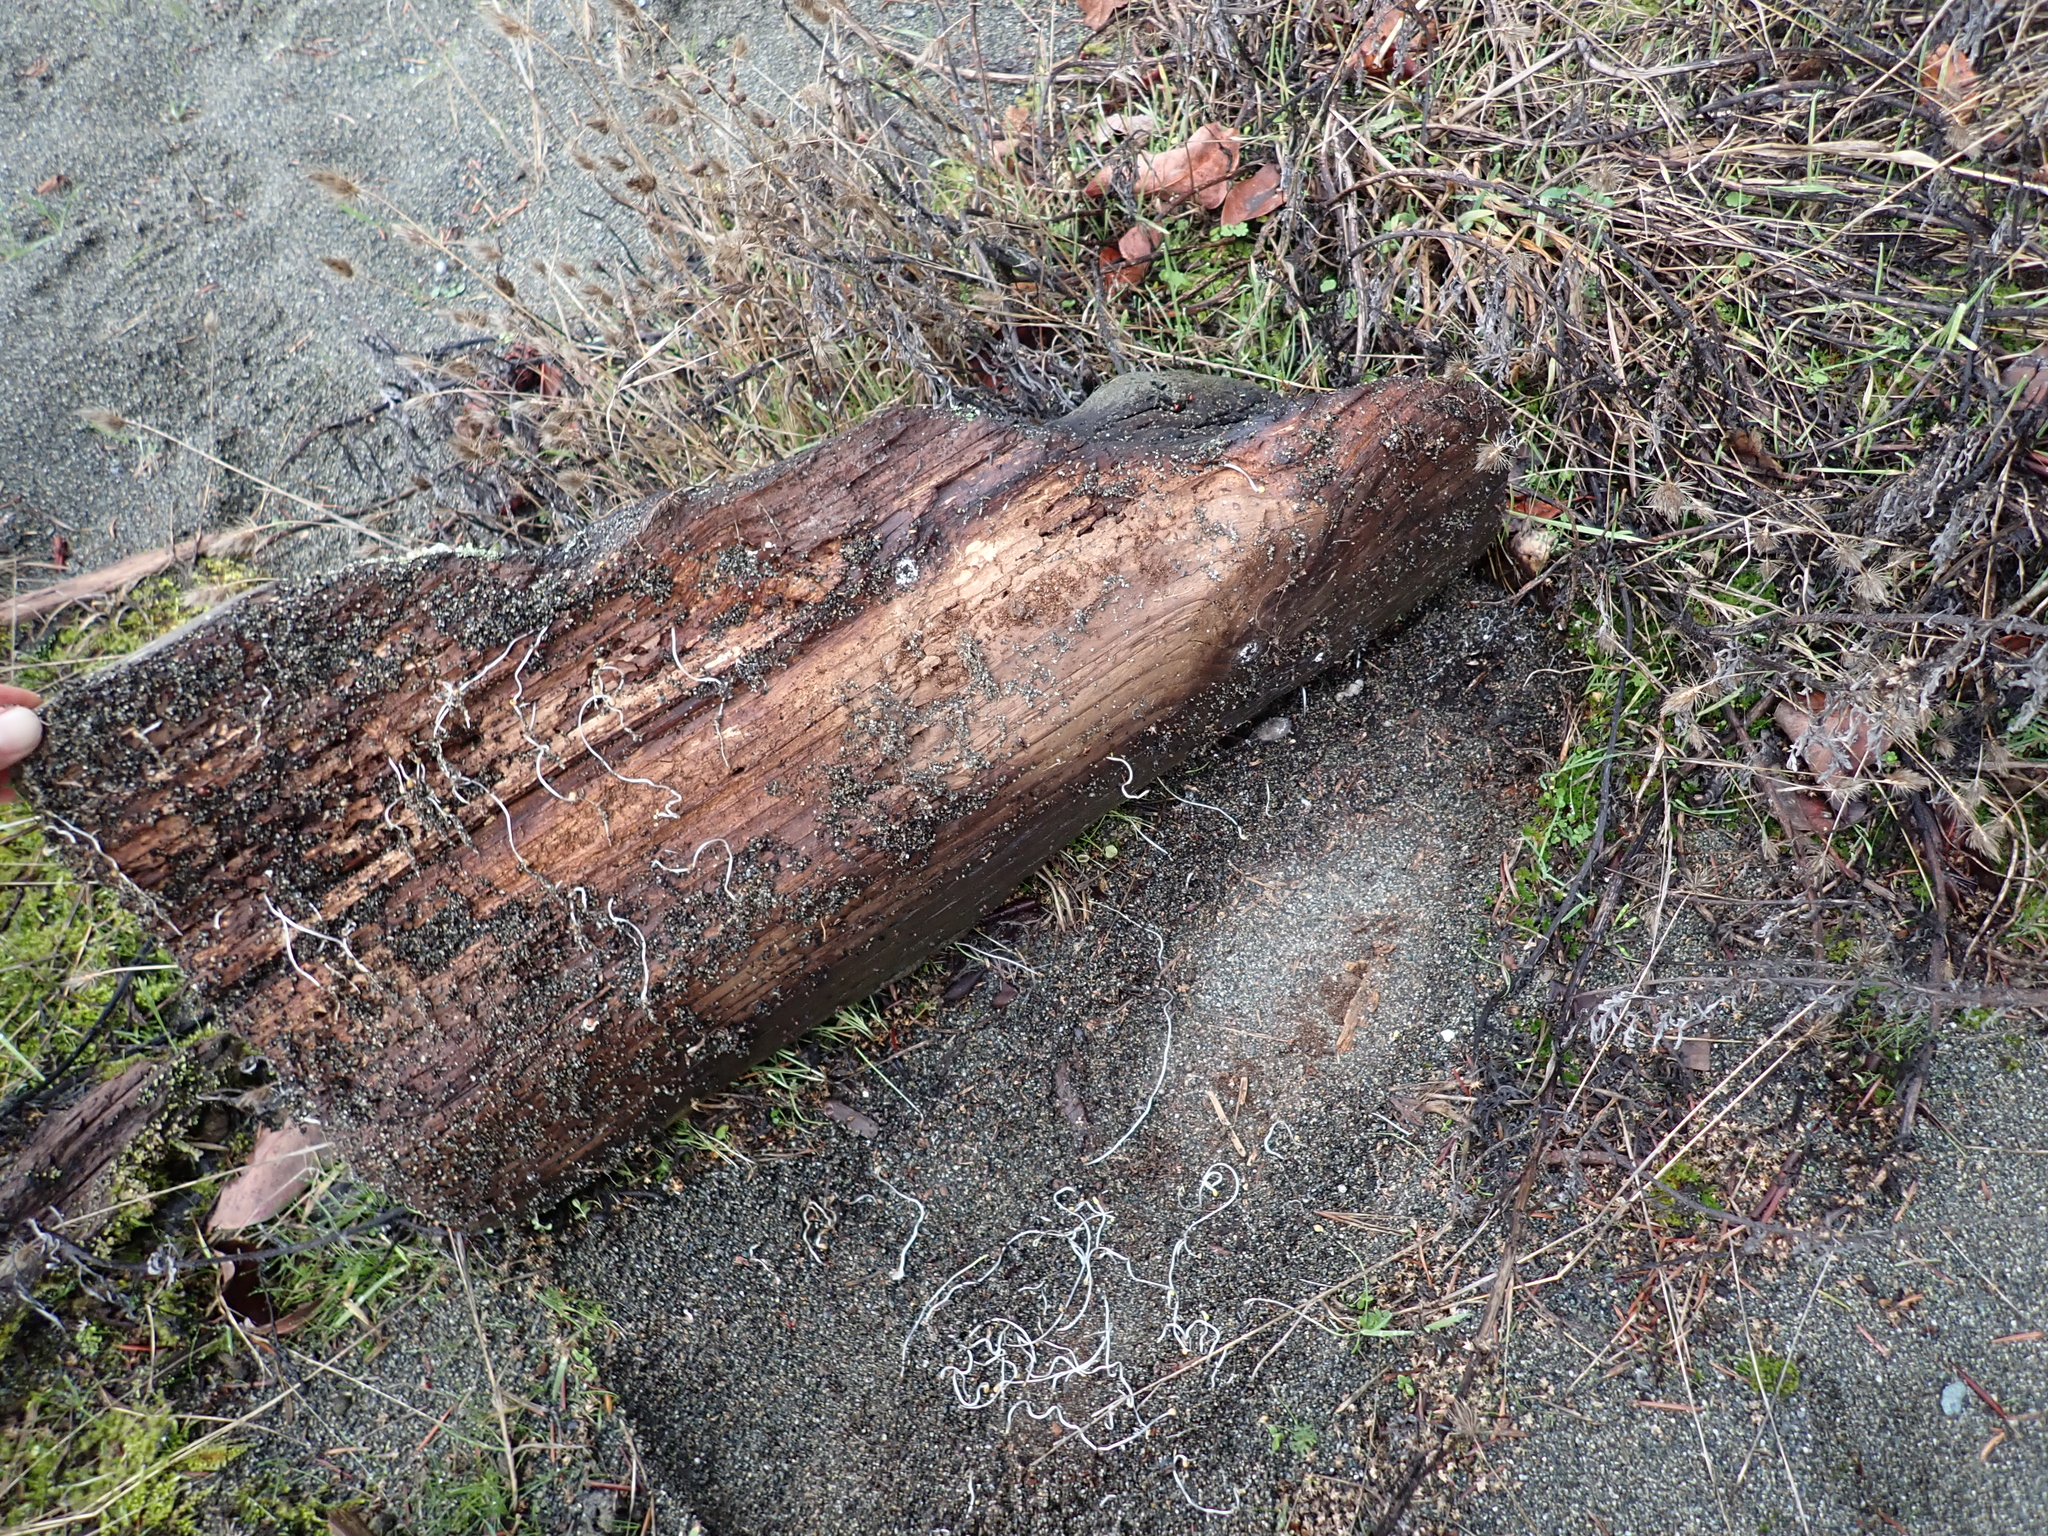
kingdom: Animalia
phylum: Arthropoda
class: Insecta
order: Hymenoptera
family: Formicidae
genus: Aphaenogaster
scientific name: Aphaenogaster occidentalis
